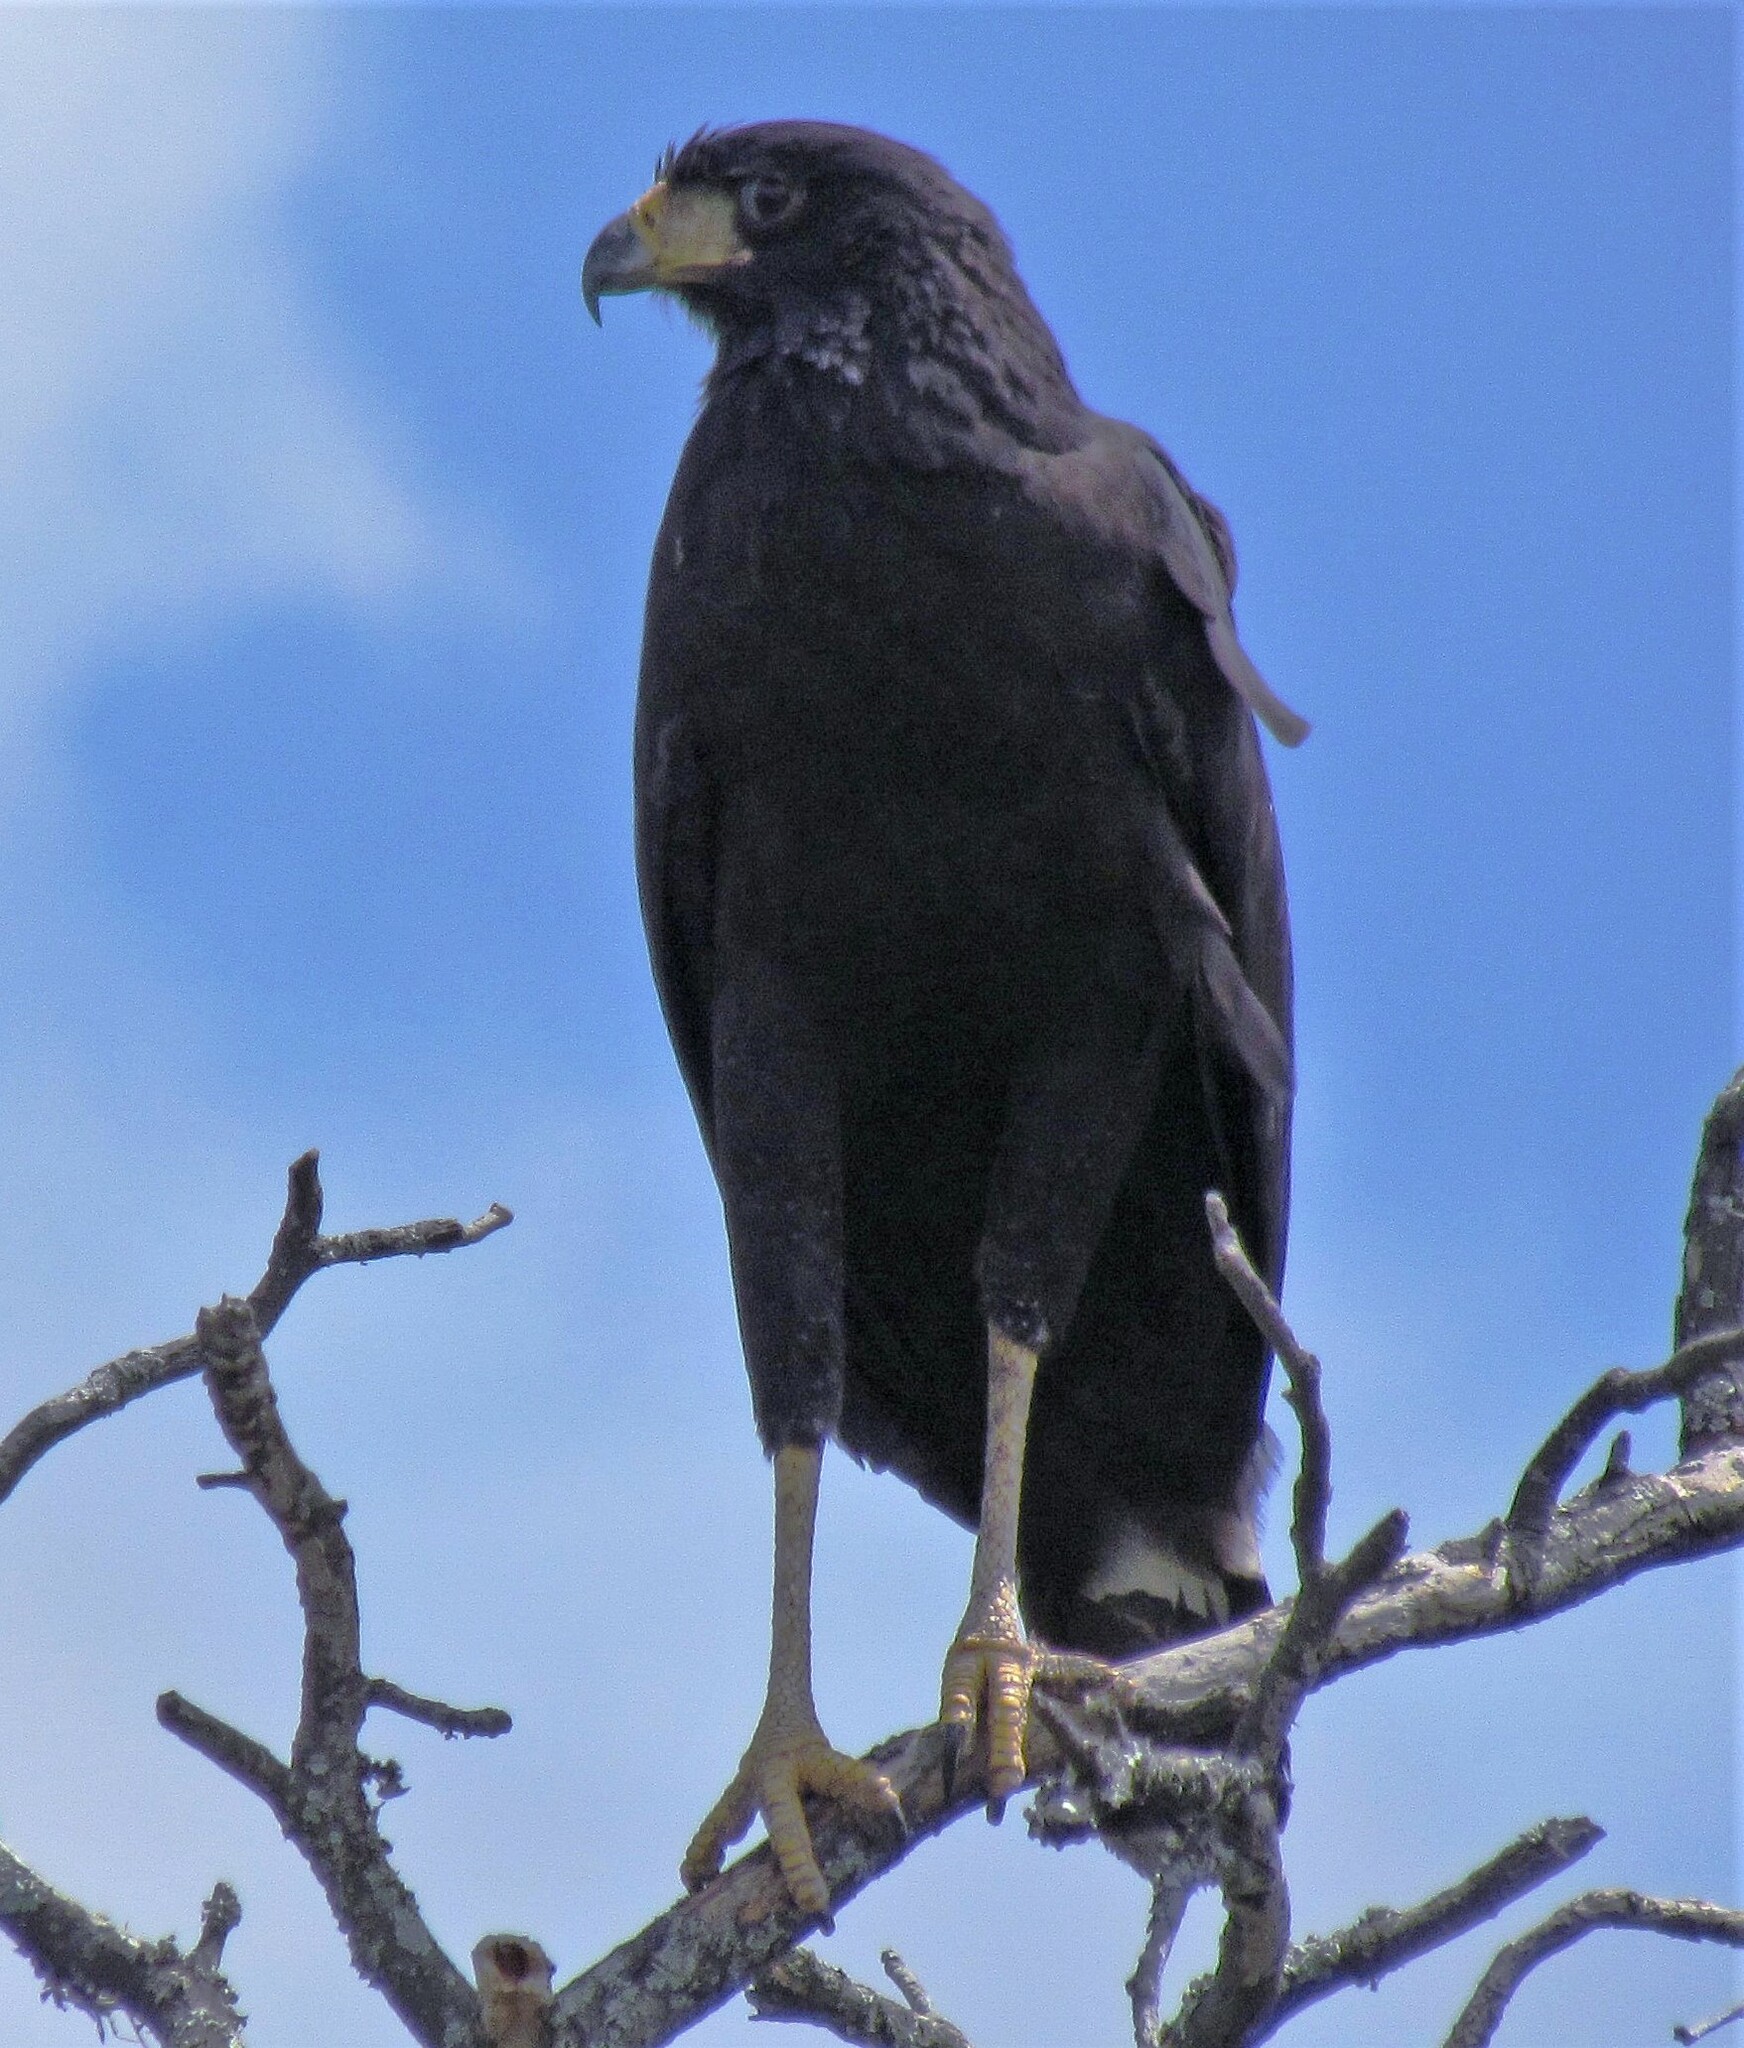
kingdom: Animalia
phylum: Chordata
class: Aves
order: Accipitriformes
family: Accipitridae
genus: Buteogallus
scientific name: Buteogallus urubitinga
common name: Great black hawk
